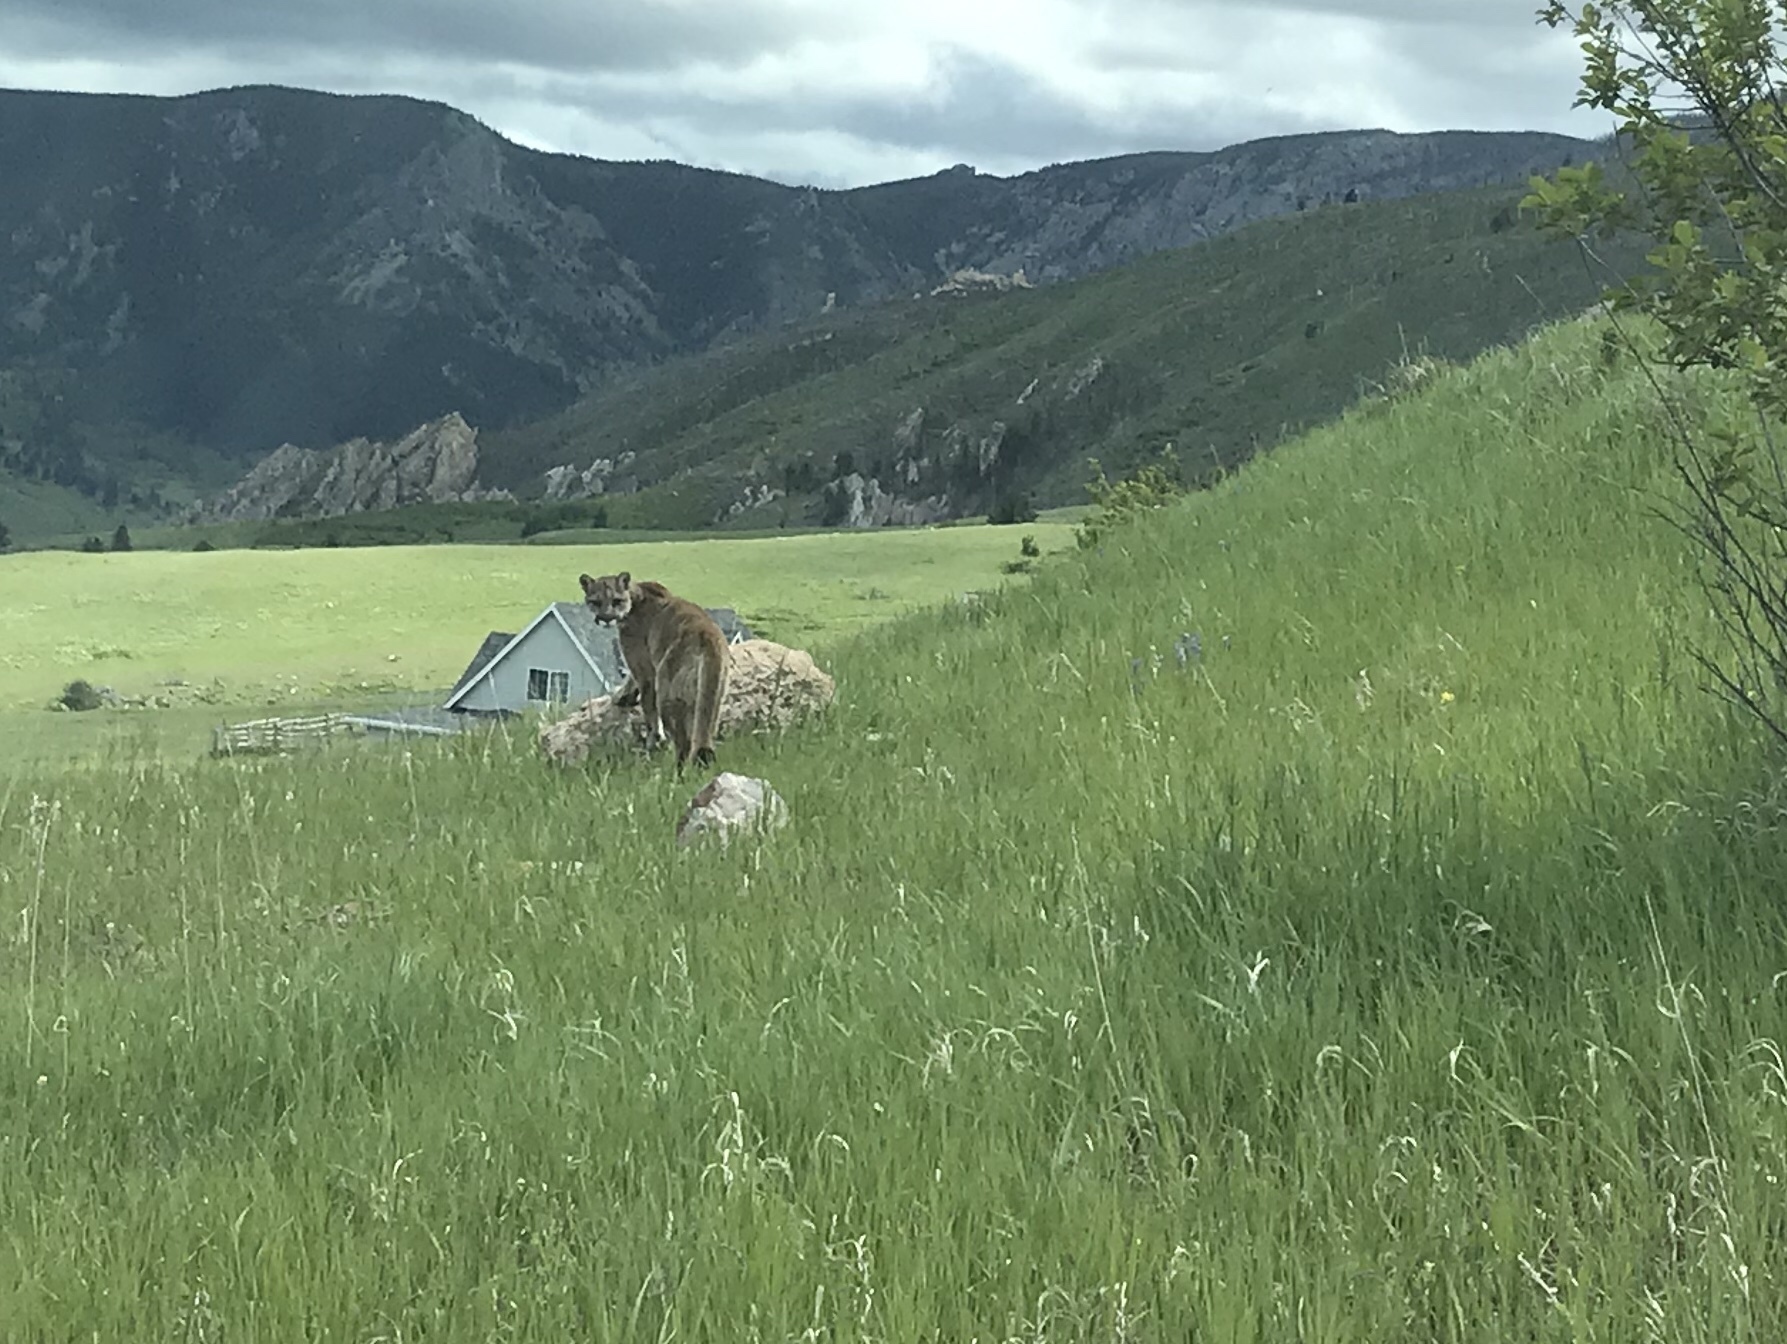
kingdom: Animalia
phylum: Chordata
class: Mammalia
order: Carnivora
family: Felidae
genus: Puma
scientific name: Puma concolor
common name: Puma
